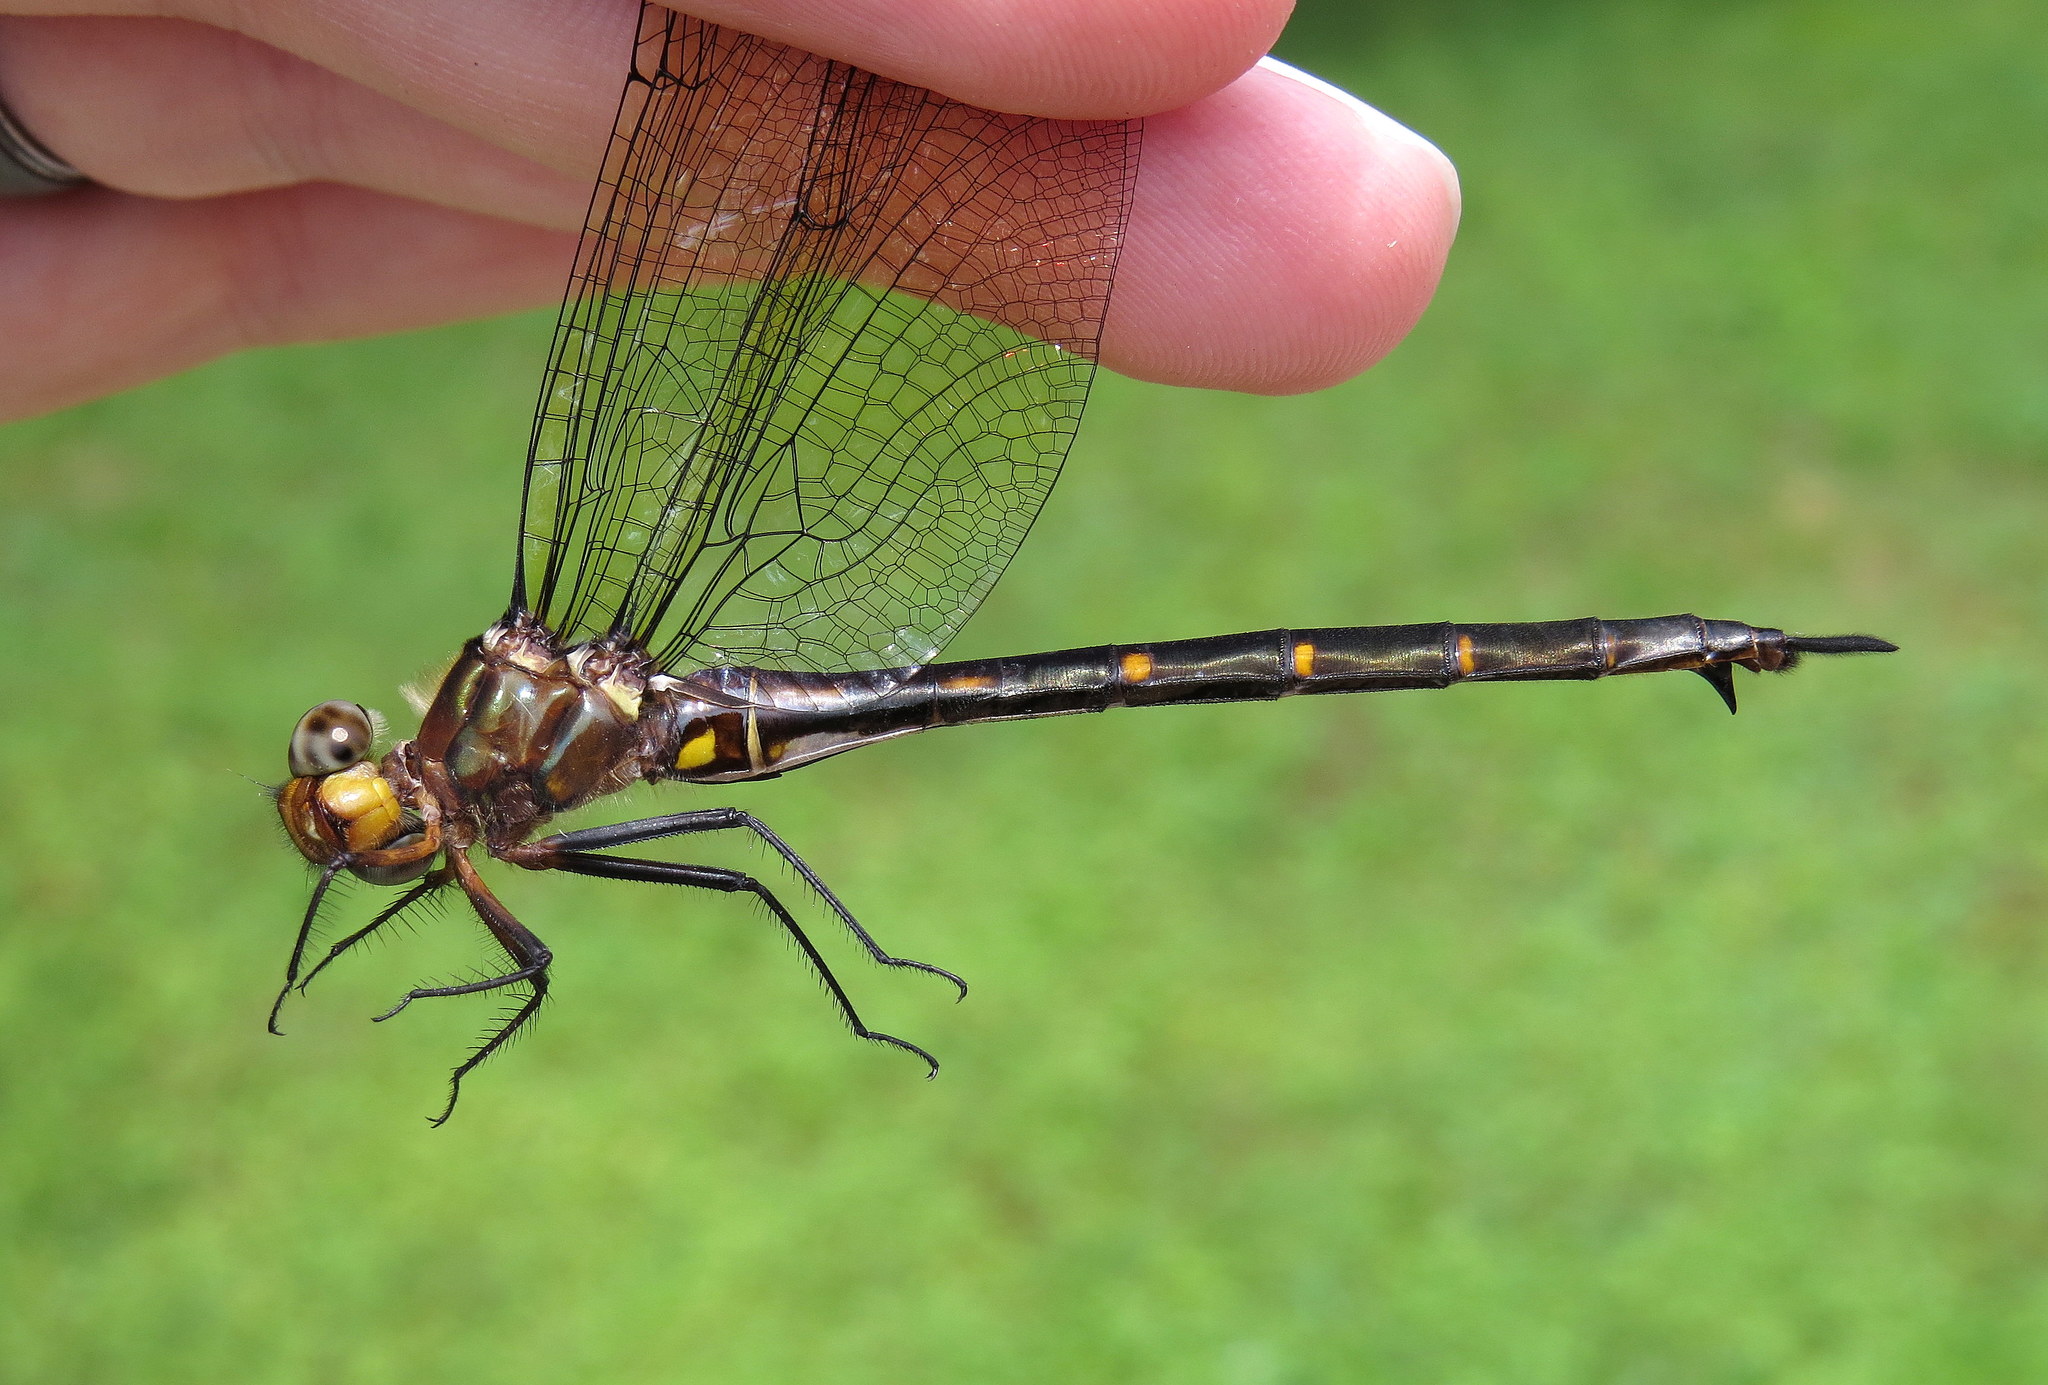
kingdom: Animalia
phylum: Arthropoda
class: Insecta
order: Odonata
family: Corduliidae
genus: Somatochlora
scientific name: Somatochlora linearis
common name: Mocha emerald
